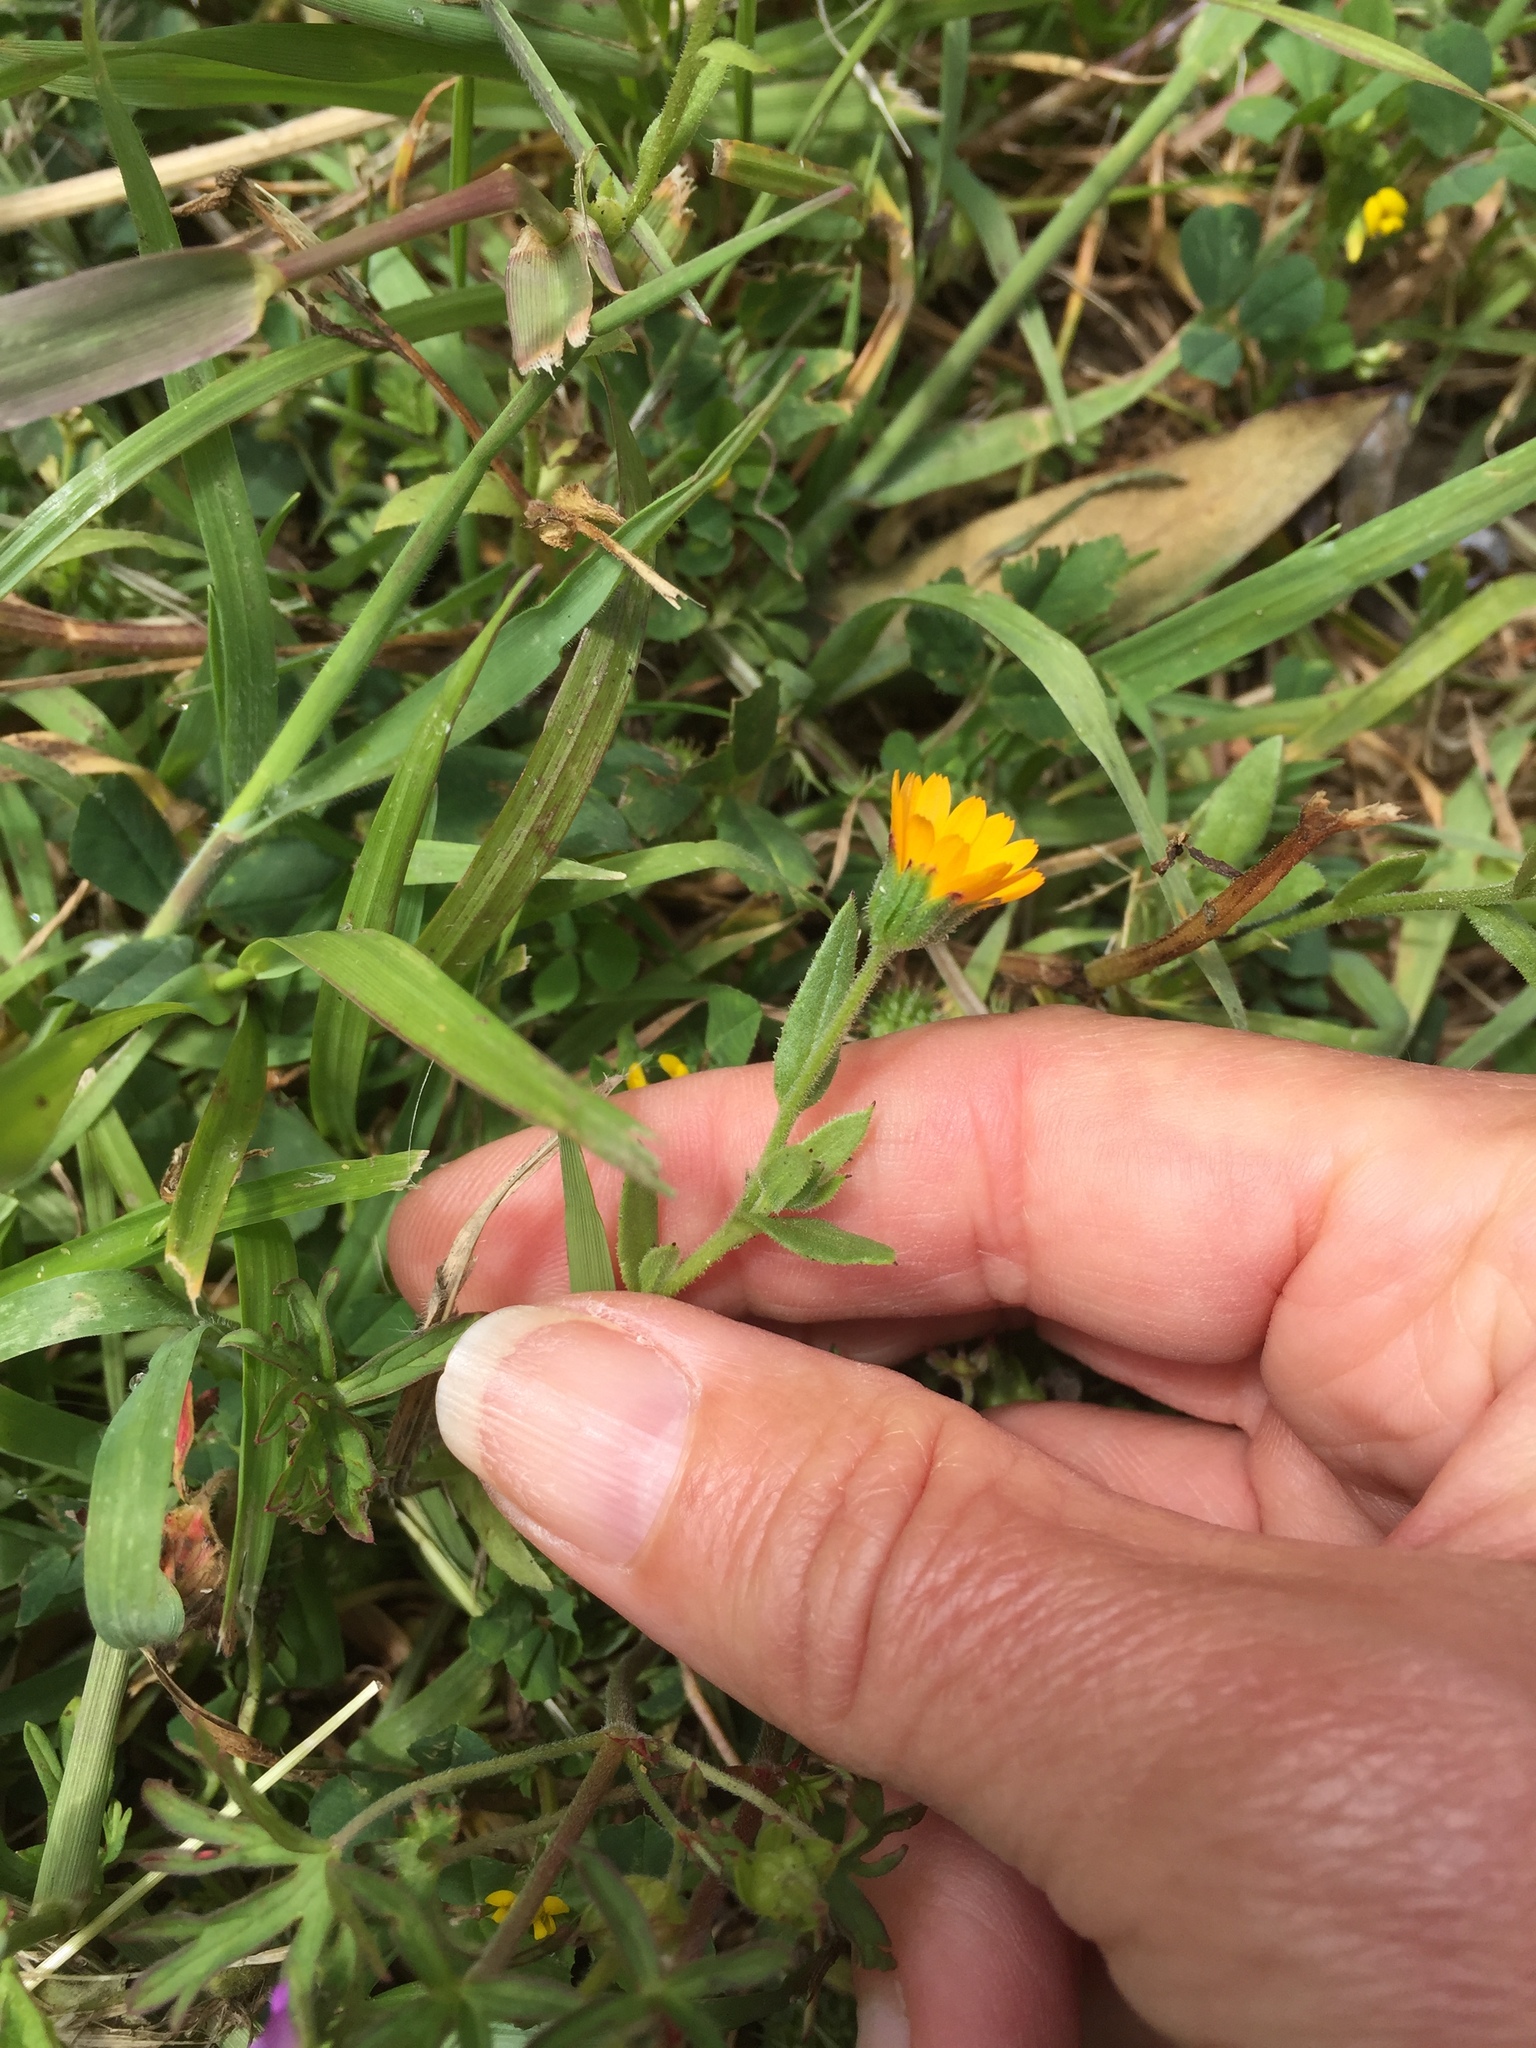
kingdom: Plantae
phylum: Tracheophyta
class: Magnoliopsida
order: Asterales
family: Asteraceae
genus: Calendula
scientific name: Calendula arvensis
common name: Field marigold
